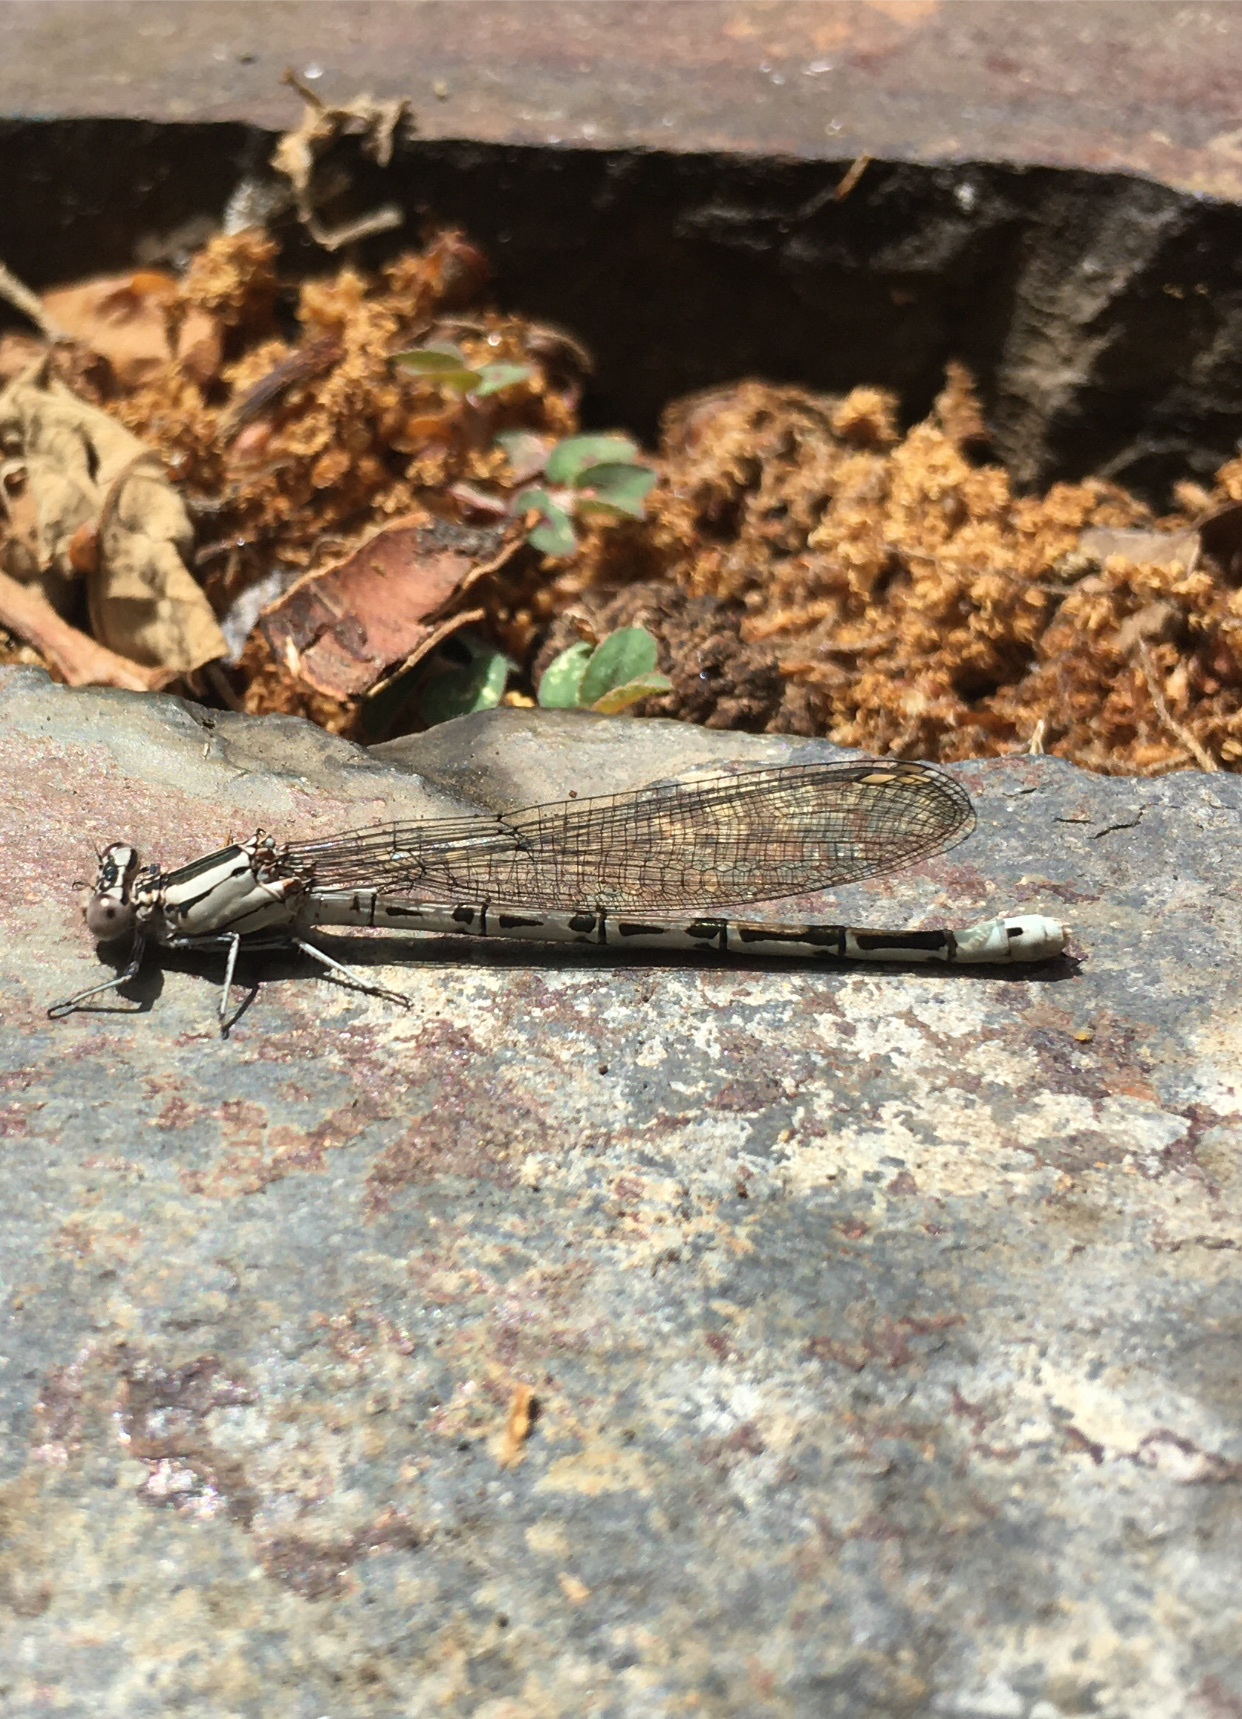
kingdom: Animalia
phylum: Arthropoda
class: Insecta
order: Odonata
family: Coenagrionidae
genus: Argia
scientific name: Argia vivida
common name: Vivid dancer
